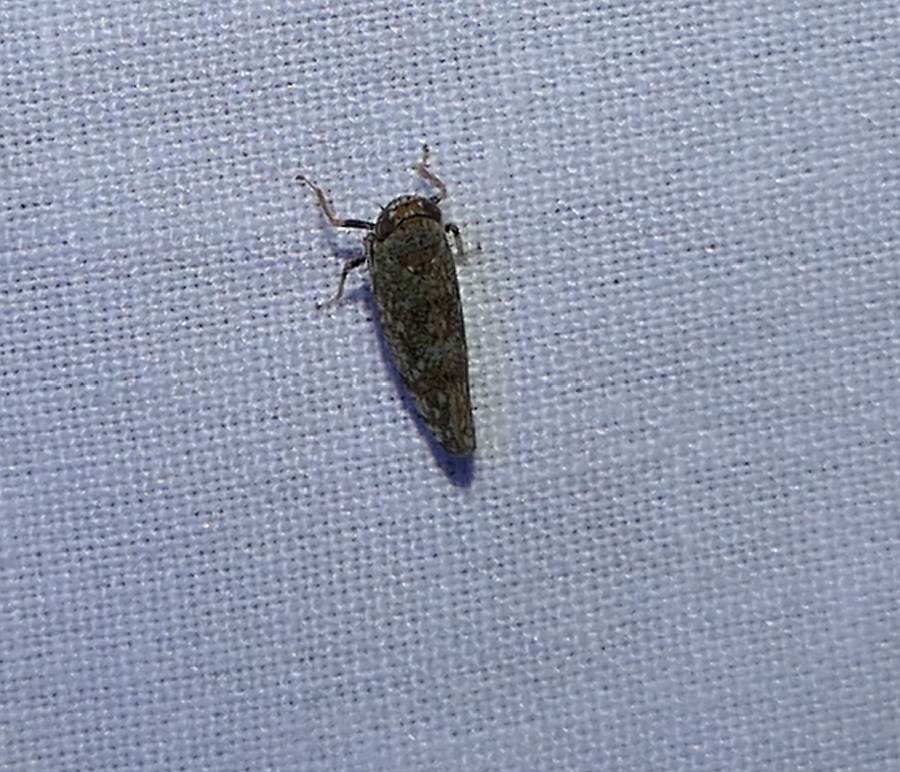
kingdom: Animalia
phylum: Arthropoda
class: Insecta
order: Hemiptera
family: Cicadellidae
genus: Orientus
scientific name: Orientus ishidae
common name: Japanese leafhopper
